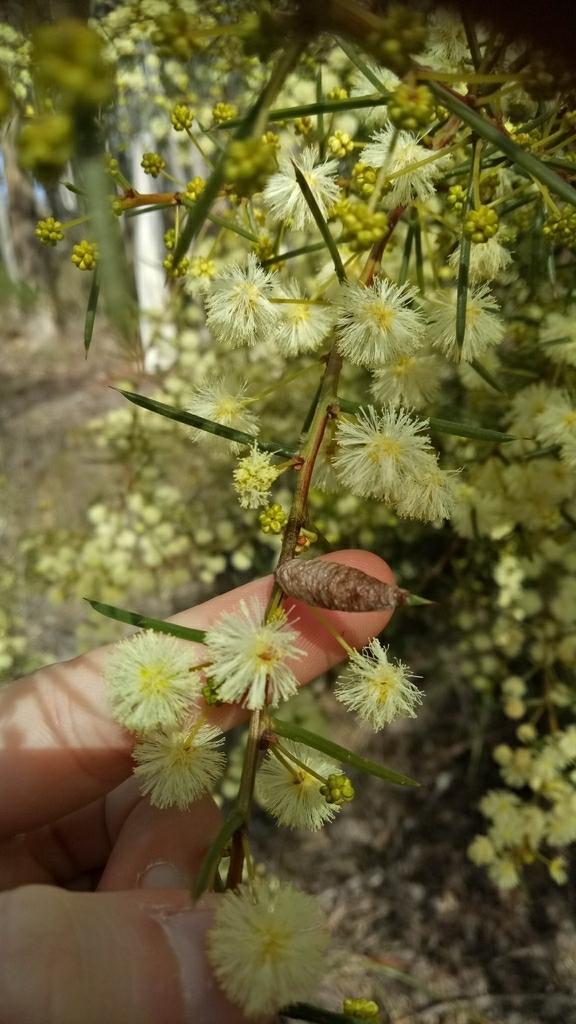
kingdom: Animalia
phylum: Arthropoda
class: Arachnida
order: Araneae
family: Araneidae
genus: Austracantha
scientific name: Austracantha minax
